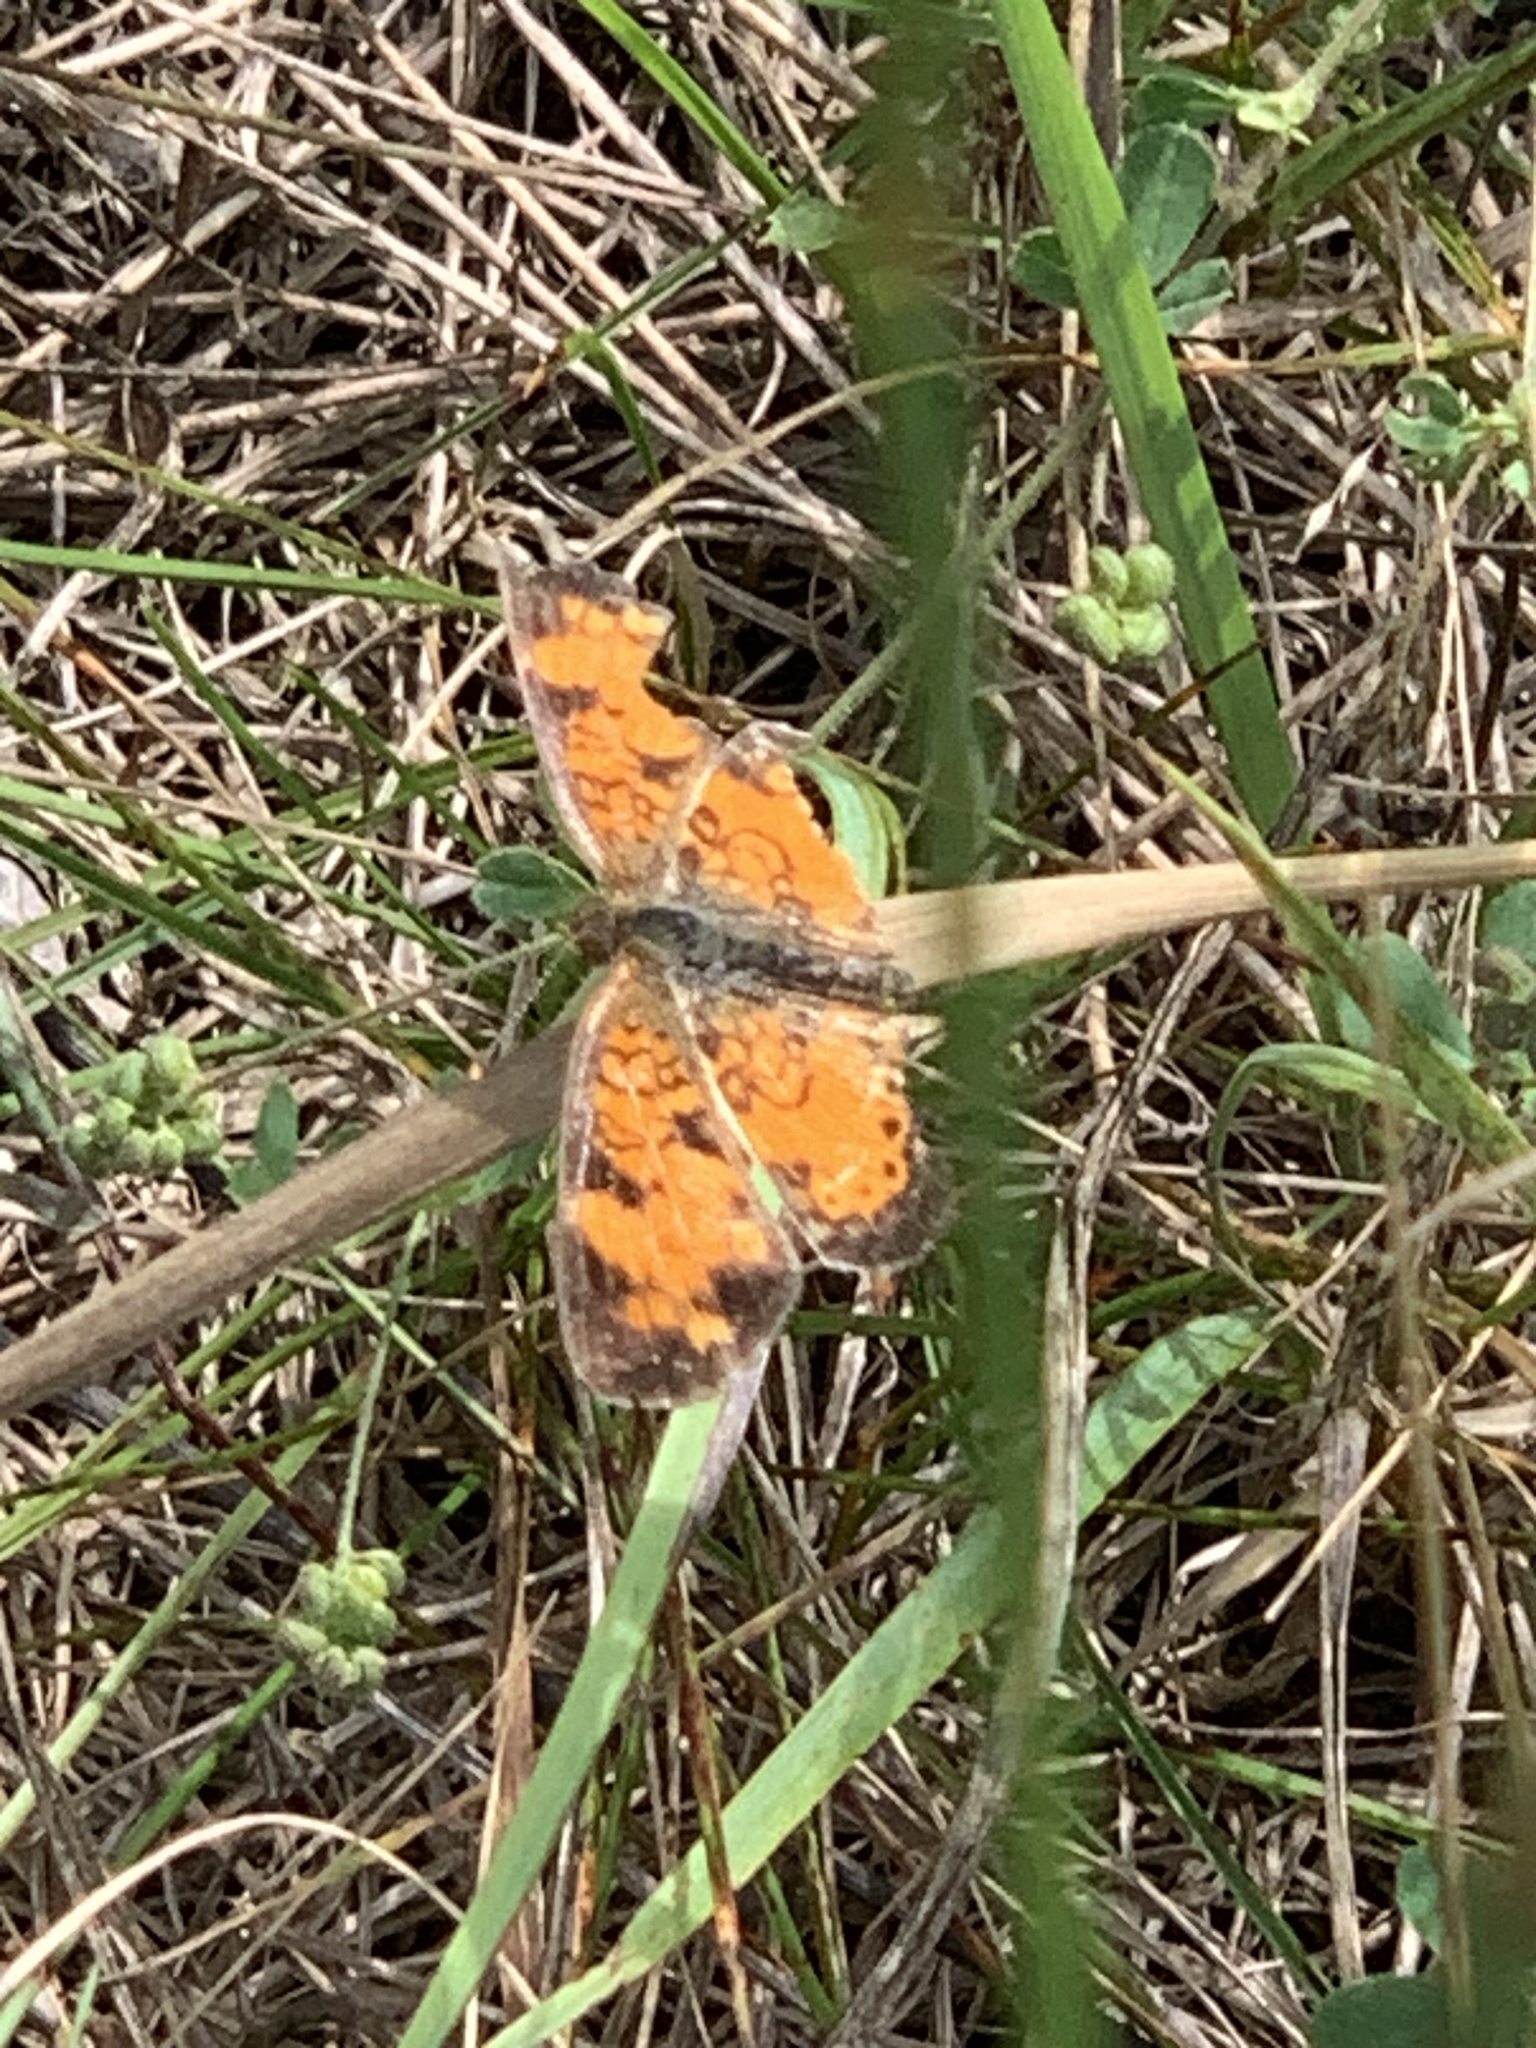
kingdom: Animalia
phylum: Arthropoda
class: Insecta
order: Lepidoptera
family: Nymphalidae
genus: Phyciodes
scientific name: Phyciodes tharos
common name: Pearl crescent
